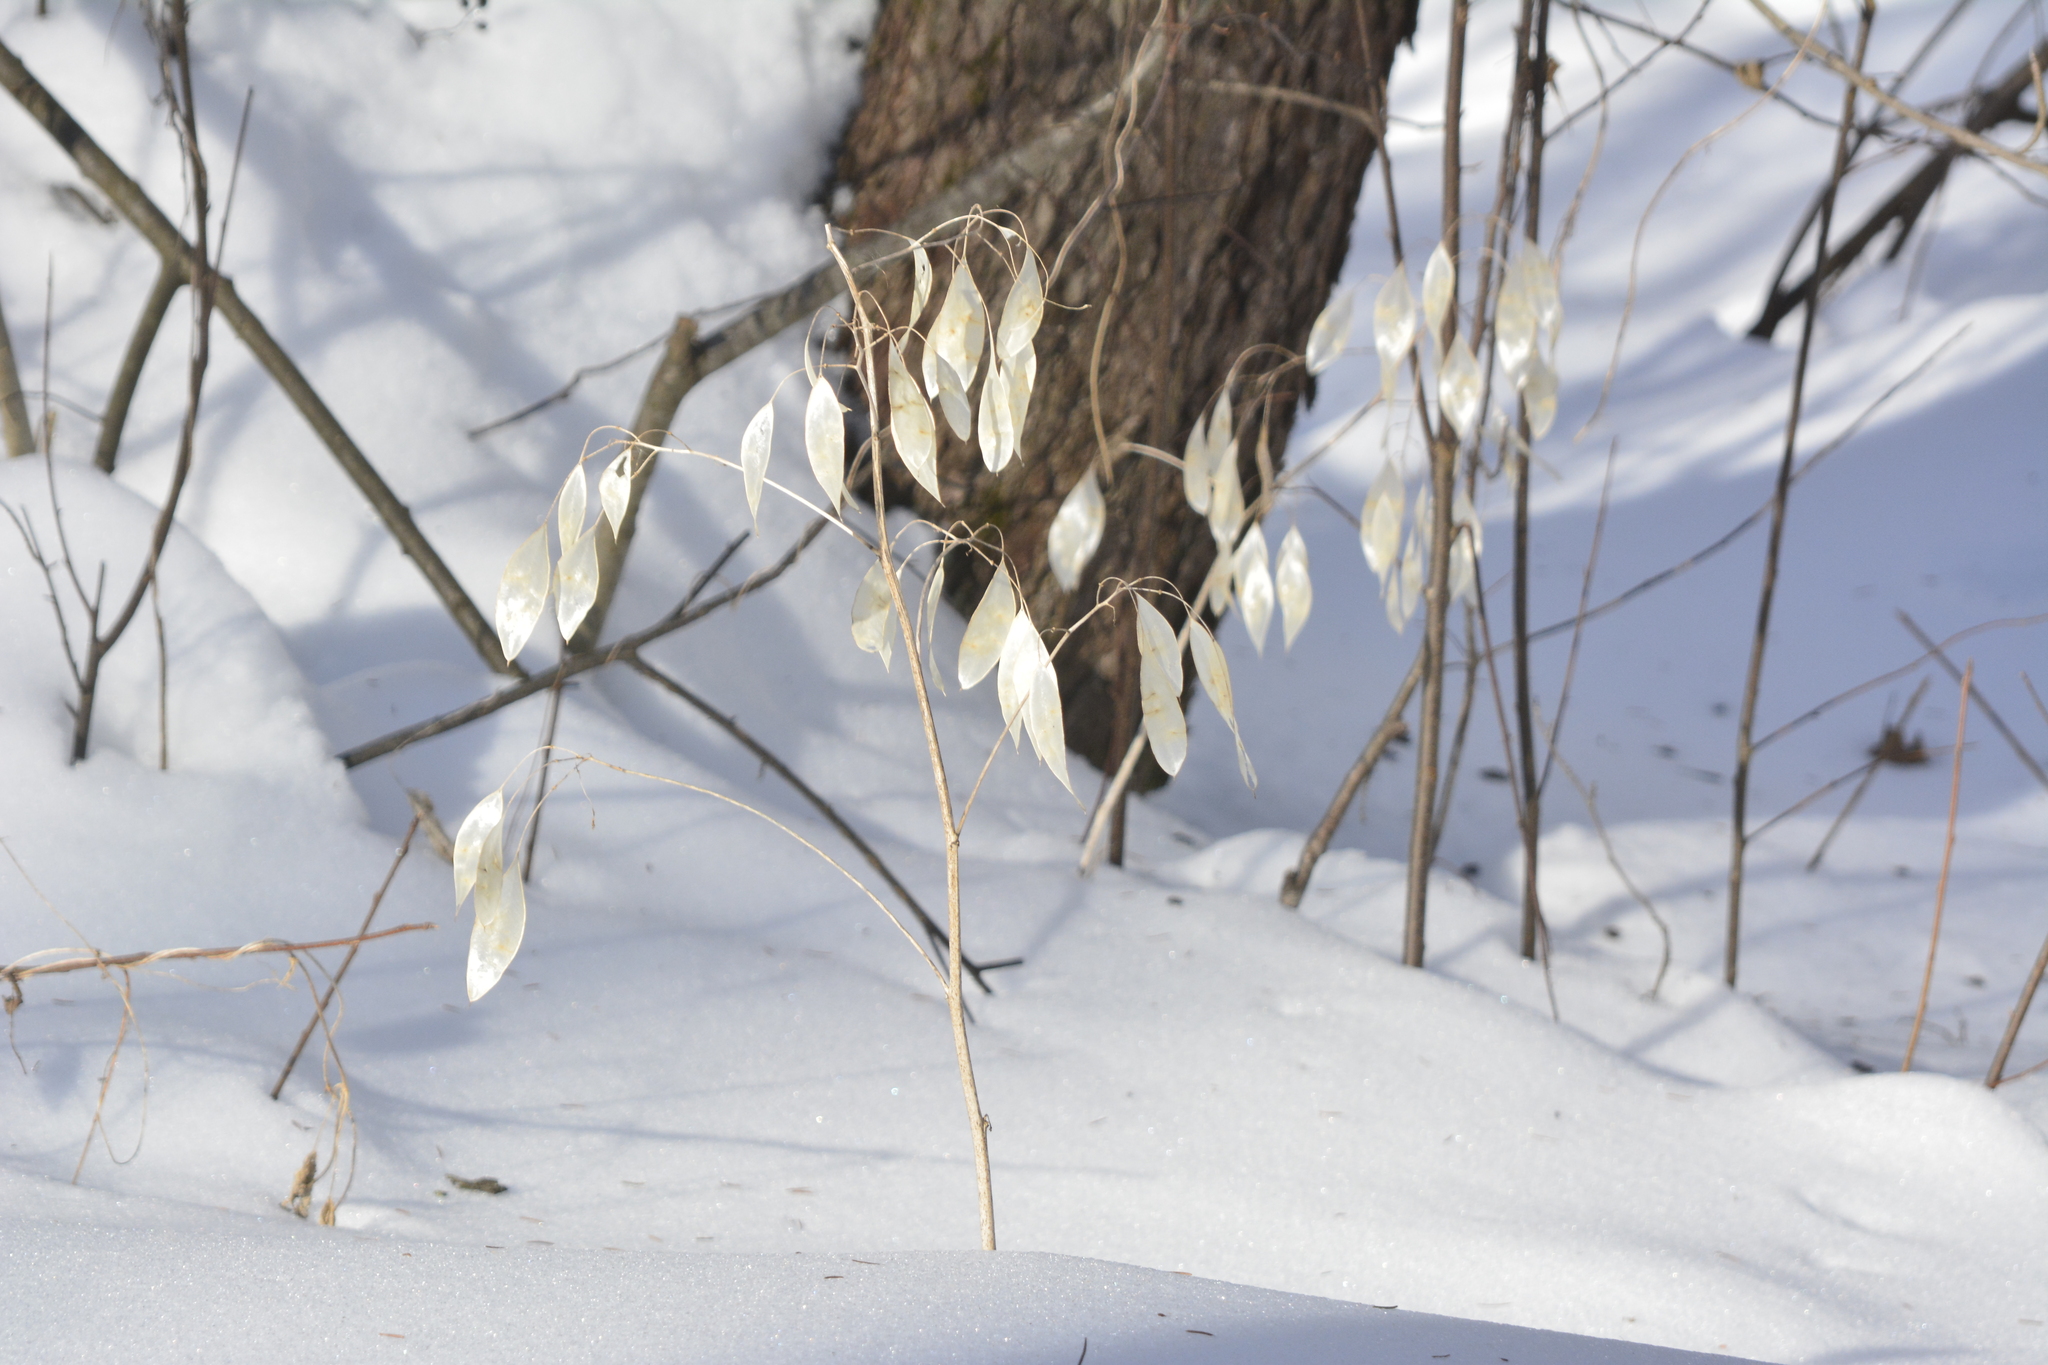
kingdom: Plantae
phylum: Tracheophyta
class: Magnoliopsida
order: Brassicales
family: Brassicaceae
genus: Lunaria
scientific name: Lunaria rediviva
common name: Perennial honesty
